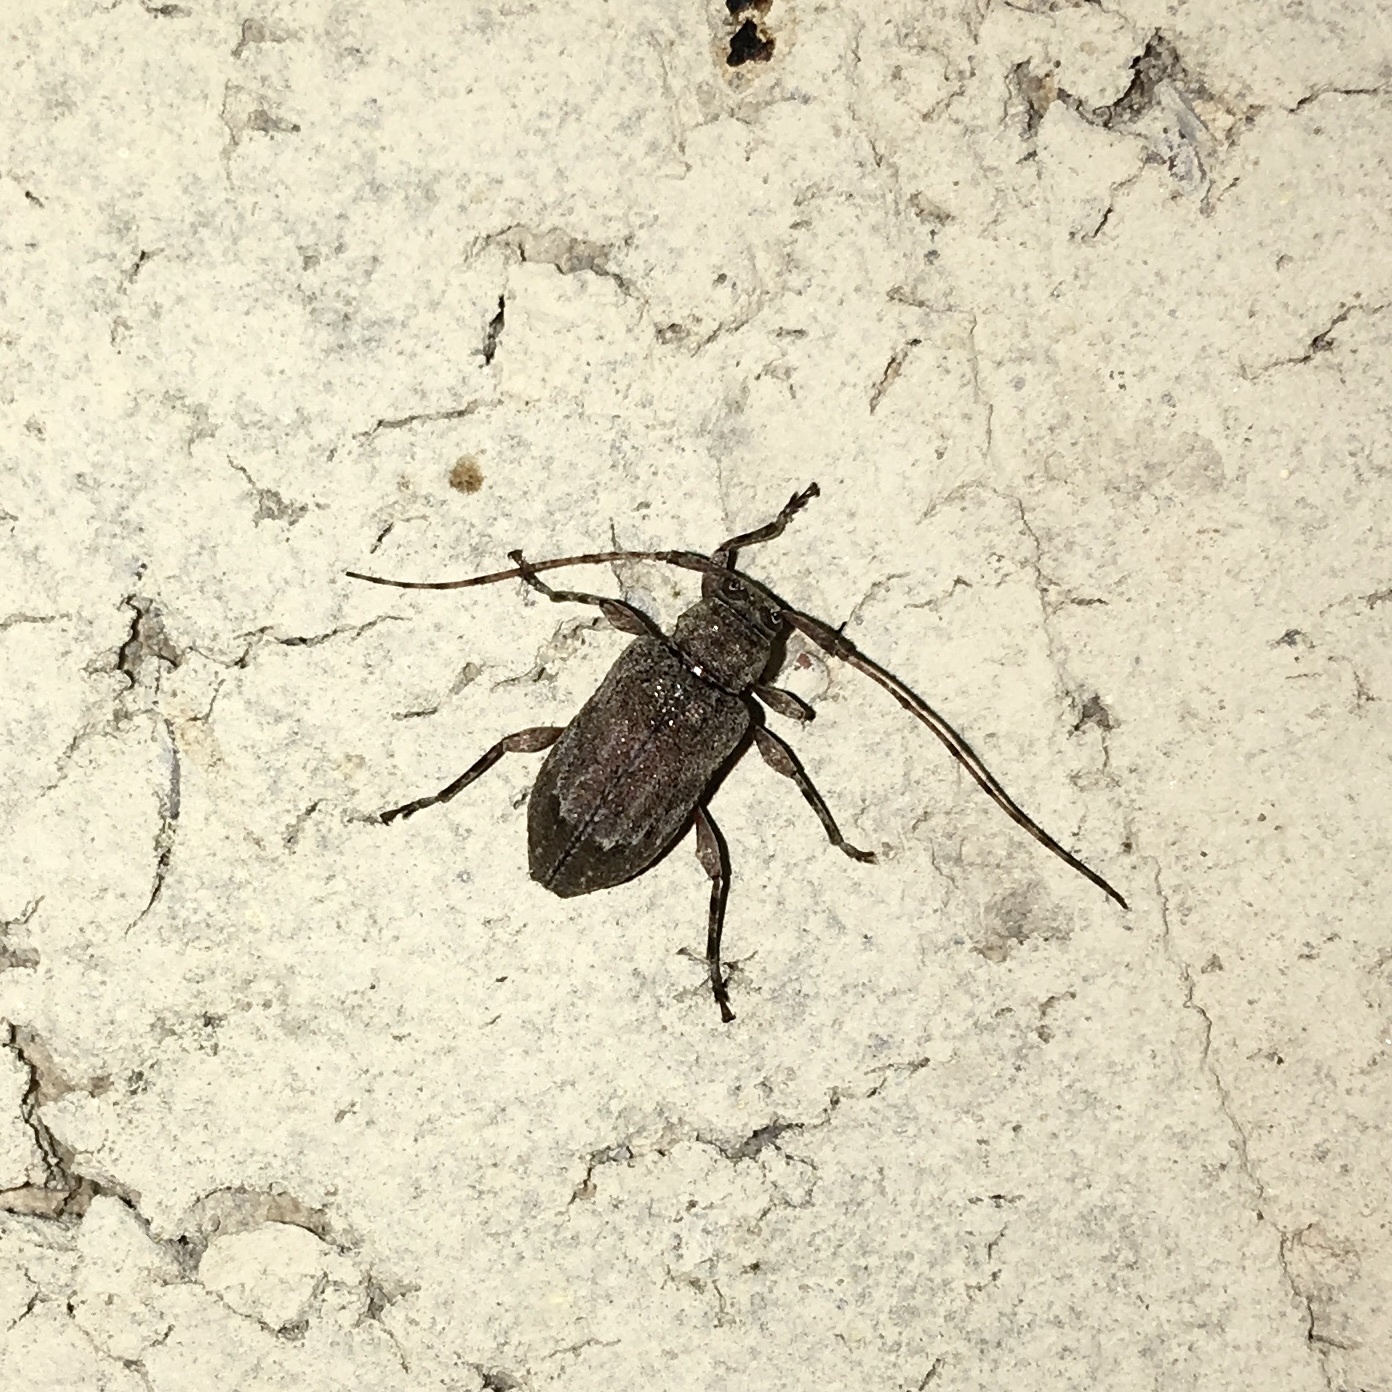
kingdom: Animalia
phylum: Arthropoda
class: Insecta
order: Coleoptera
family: Cerambycidae
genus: Astylopsis
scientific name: Astylopsis arcuata
